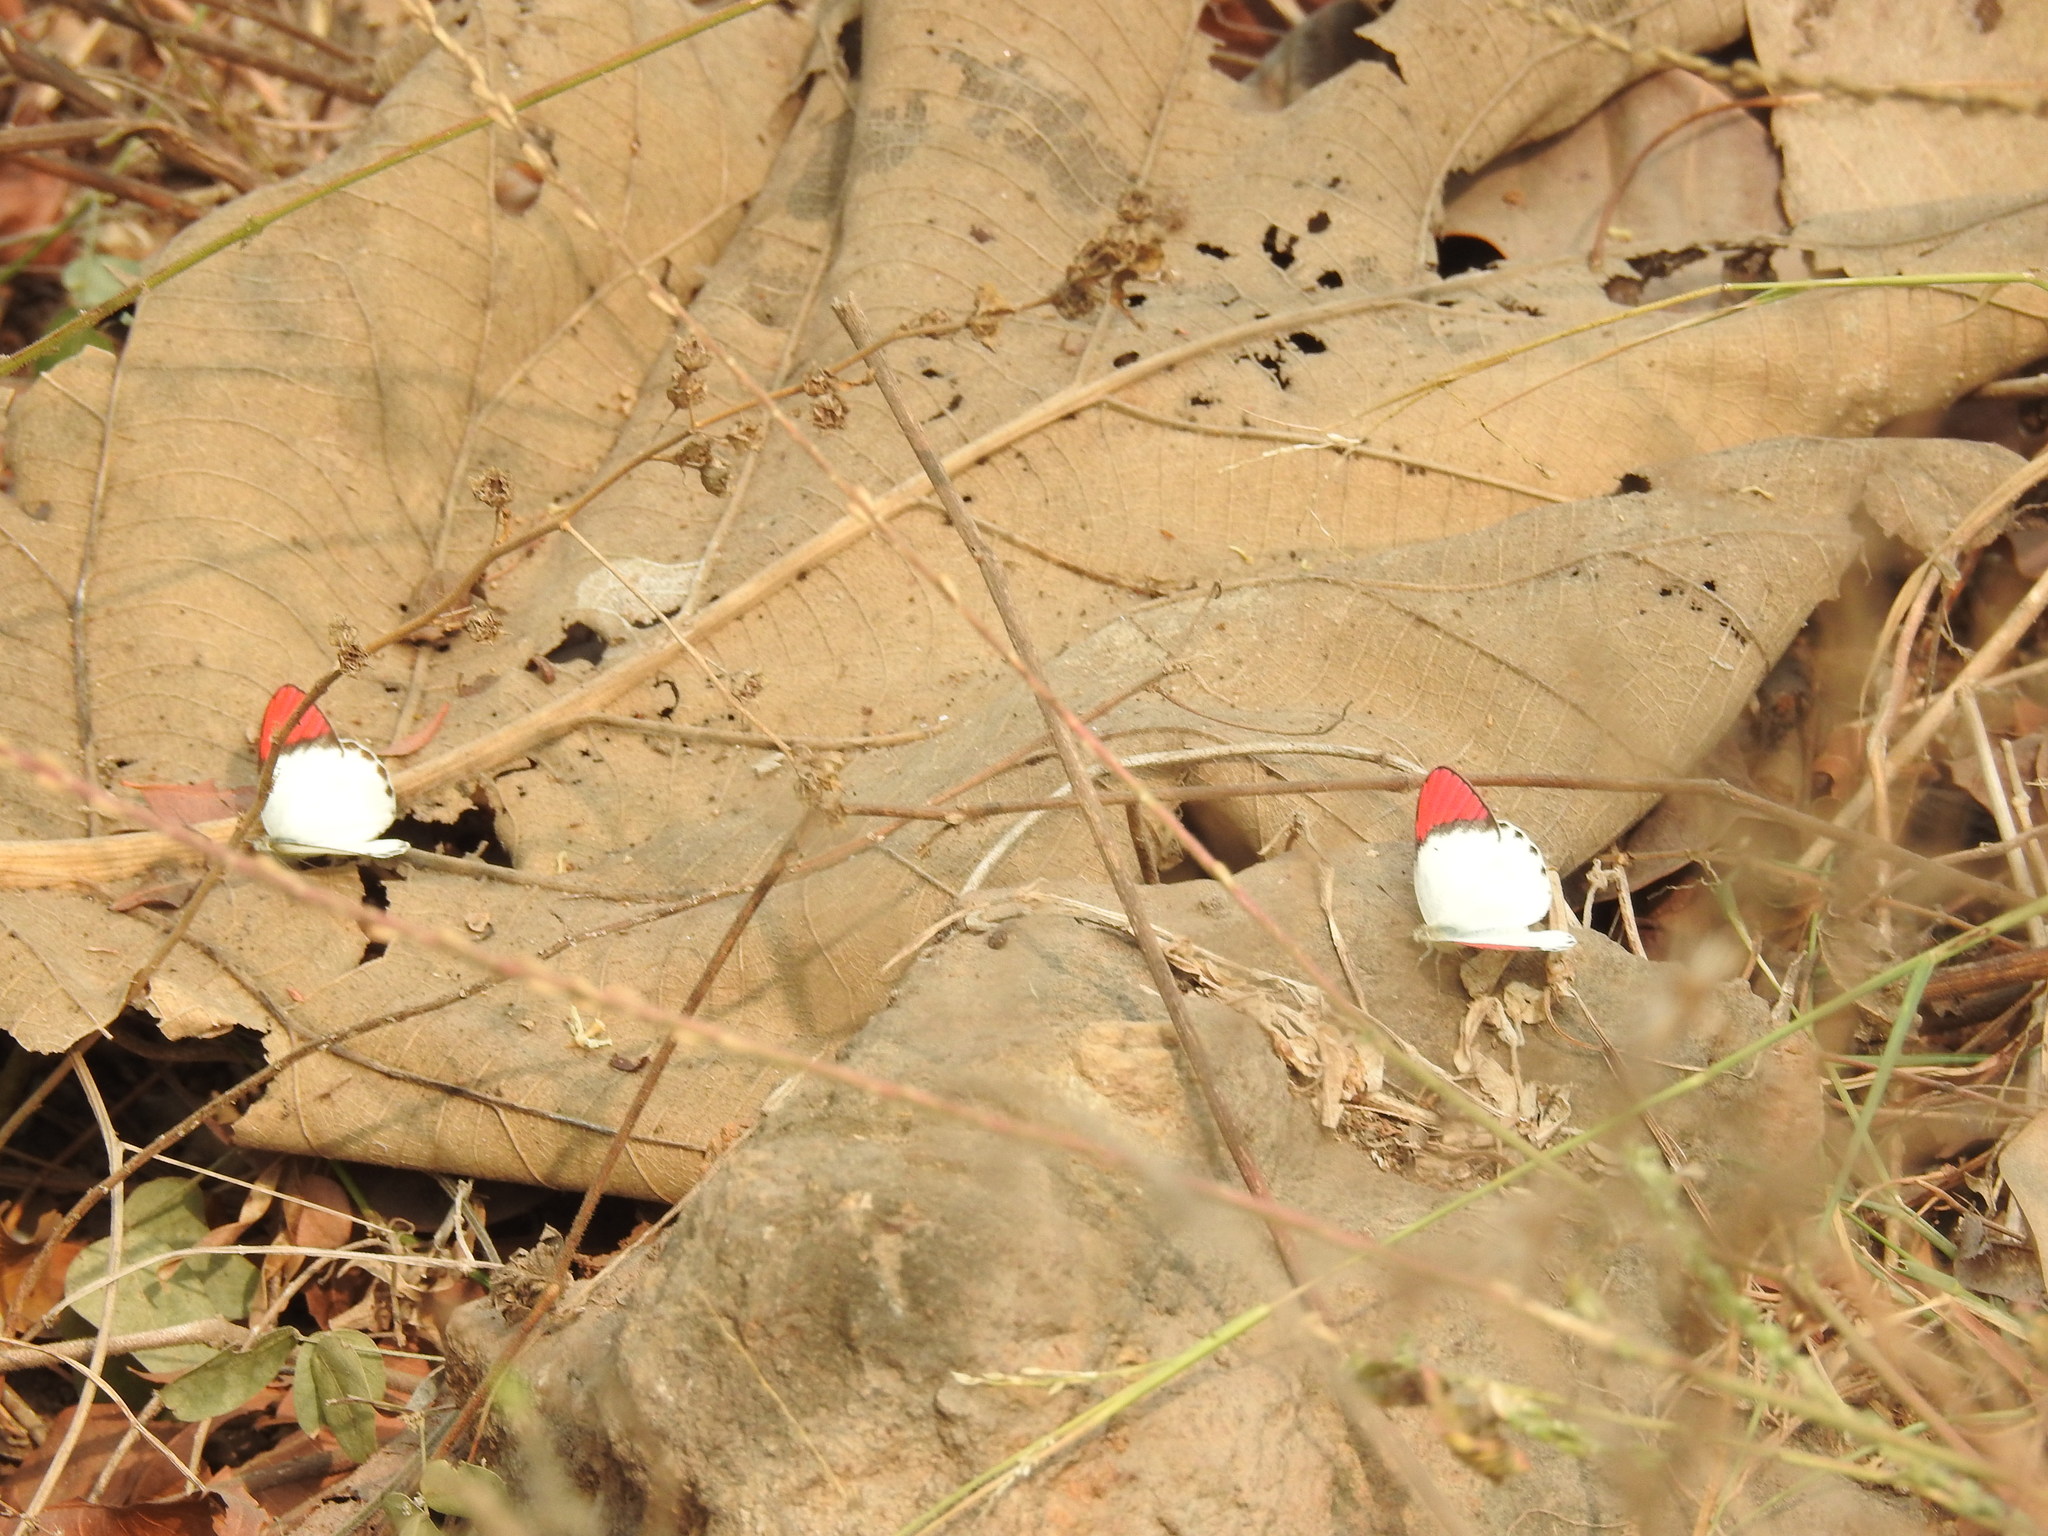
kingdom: Animalia
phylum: Arthropoda
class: Insecta
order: Lepidoptera
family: Pieridae
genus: Colotis
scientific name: Colotis danae
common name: Crimson tip
